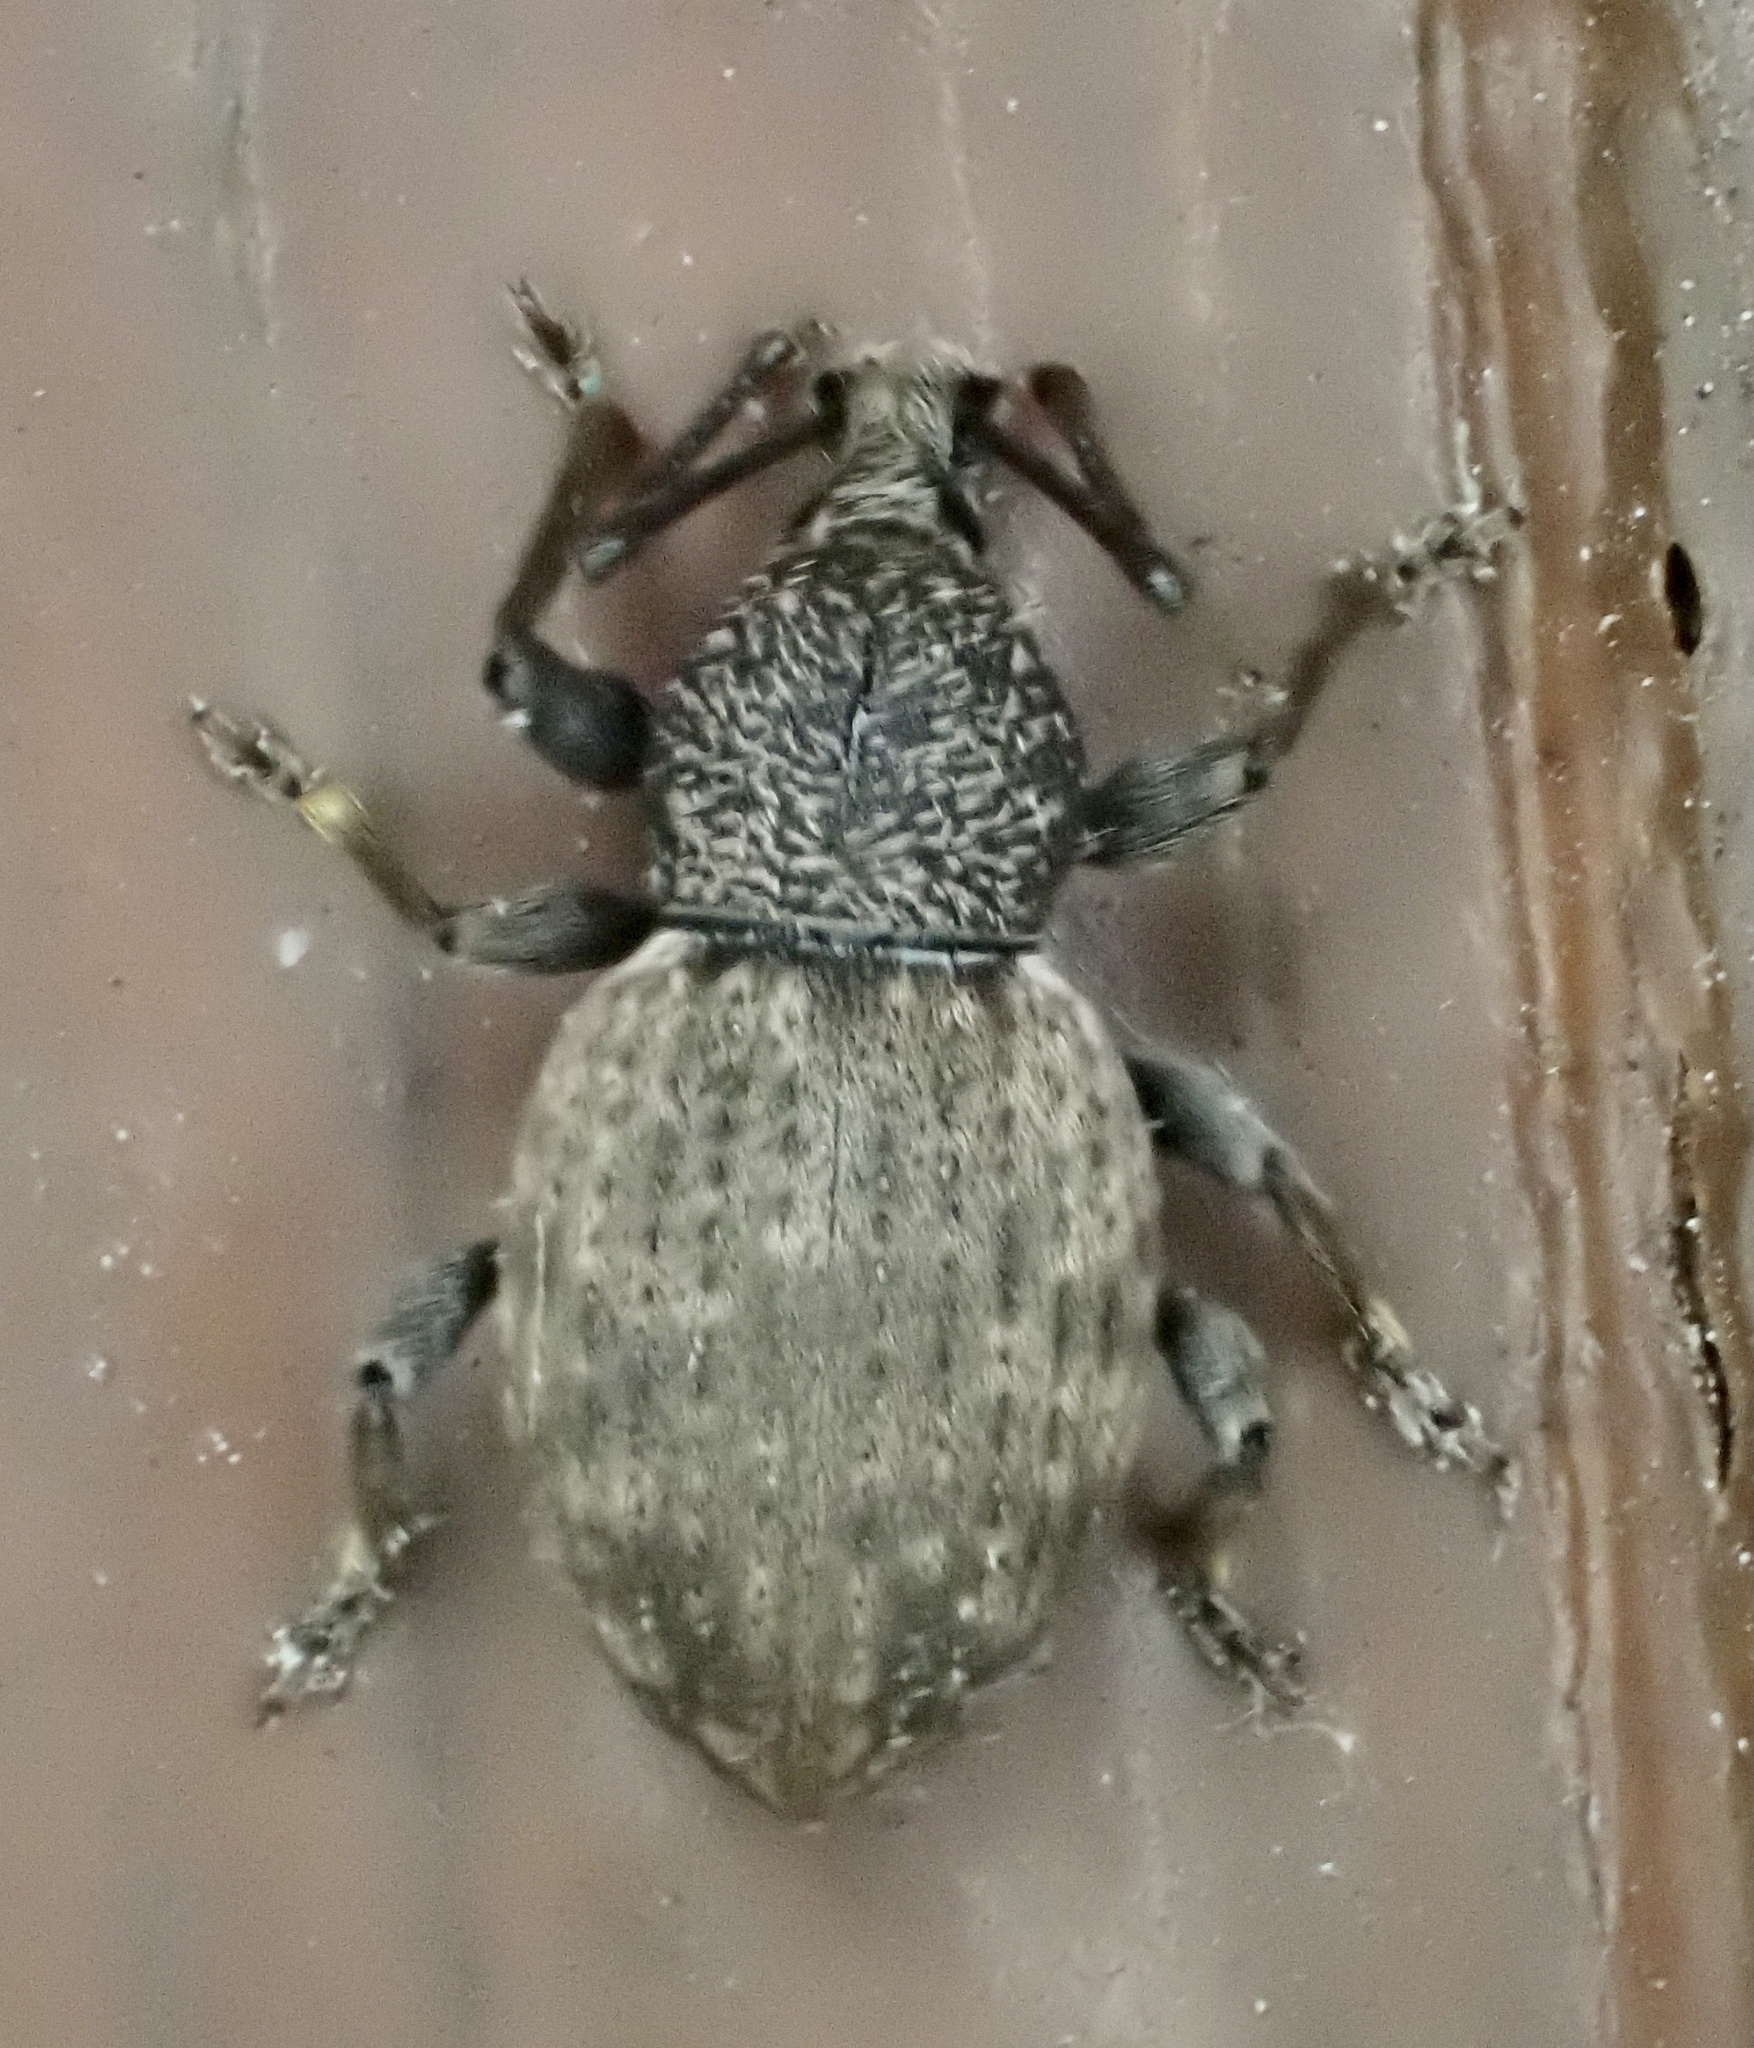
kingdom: Animalia
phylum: Arthropoda
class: Insecta
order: Coleoptera
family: Curculionidae
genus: Otiorhynchus
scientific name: Otiorhynchus raucus
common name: Weevil
